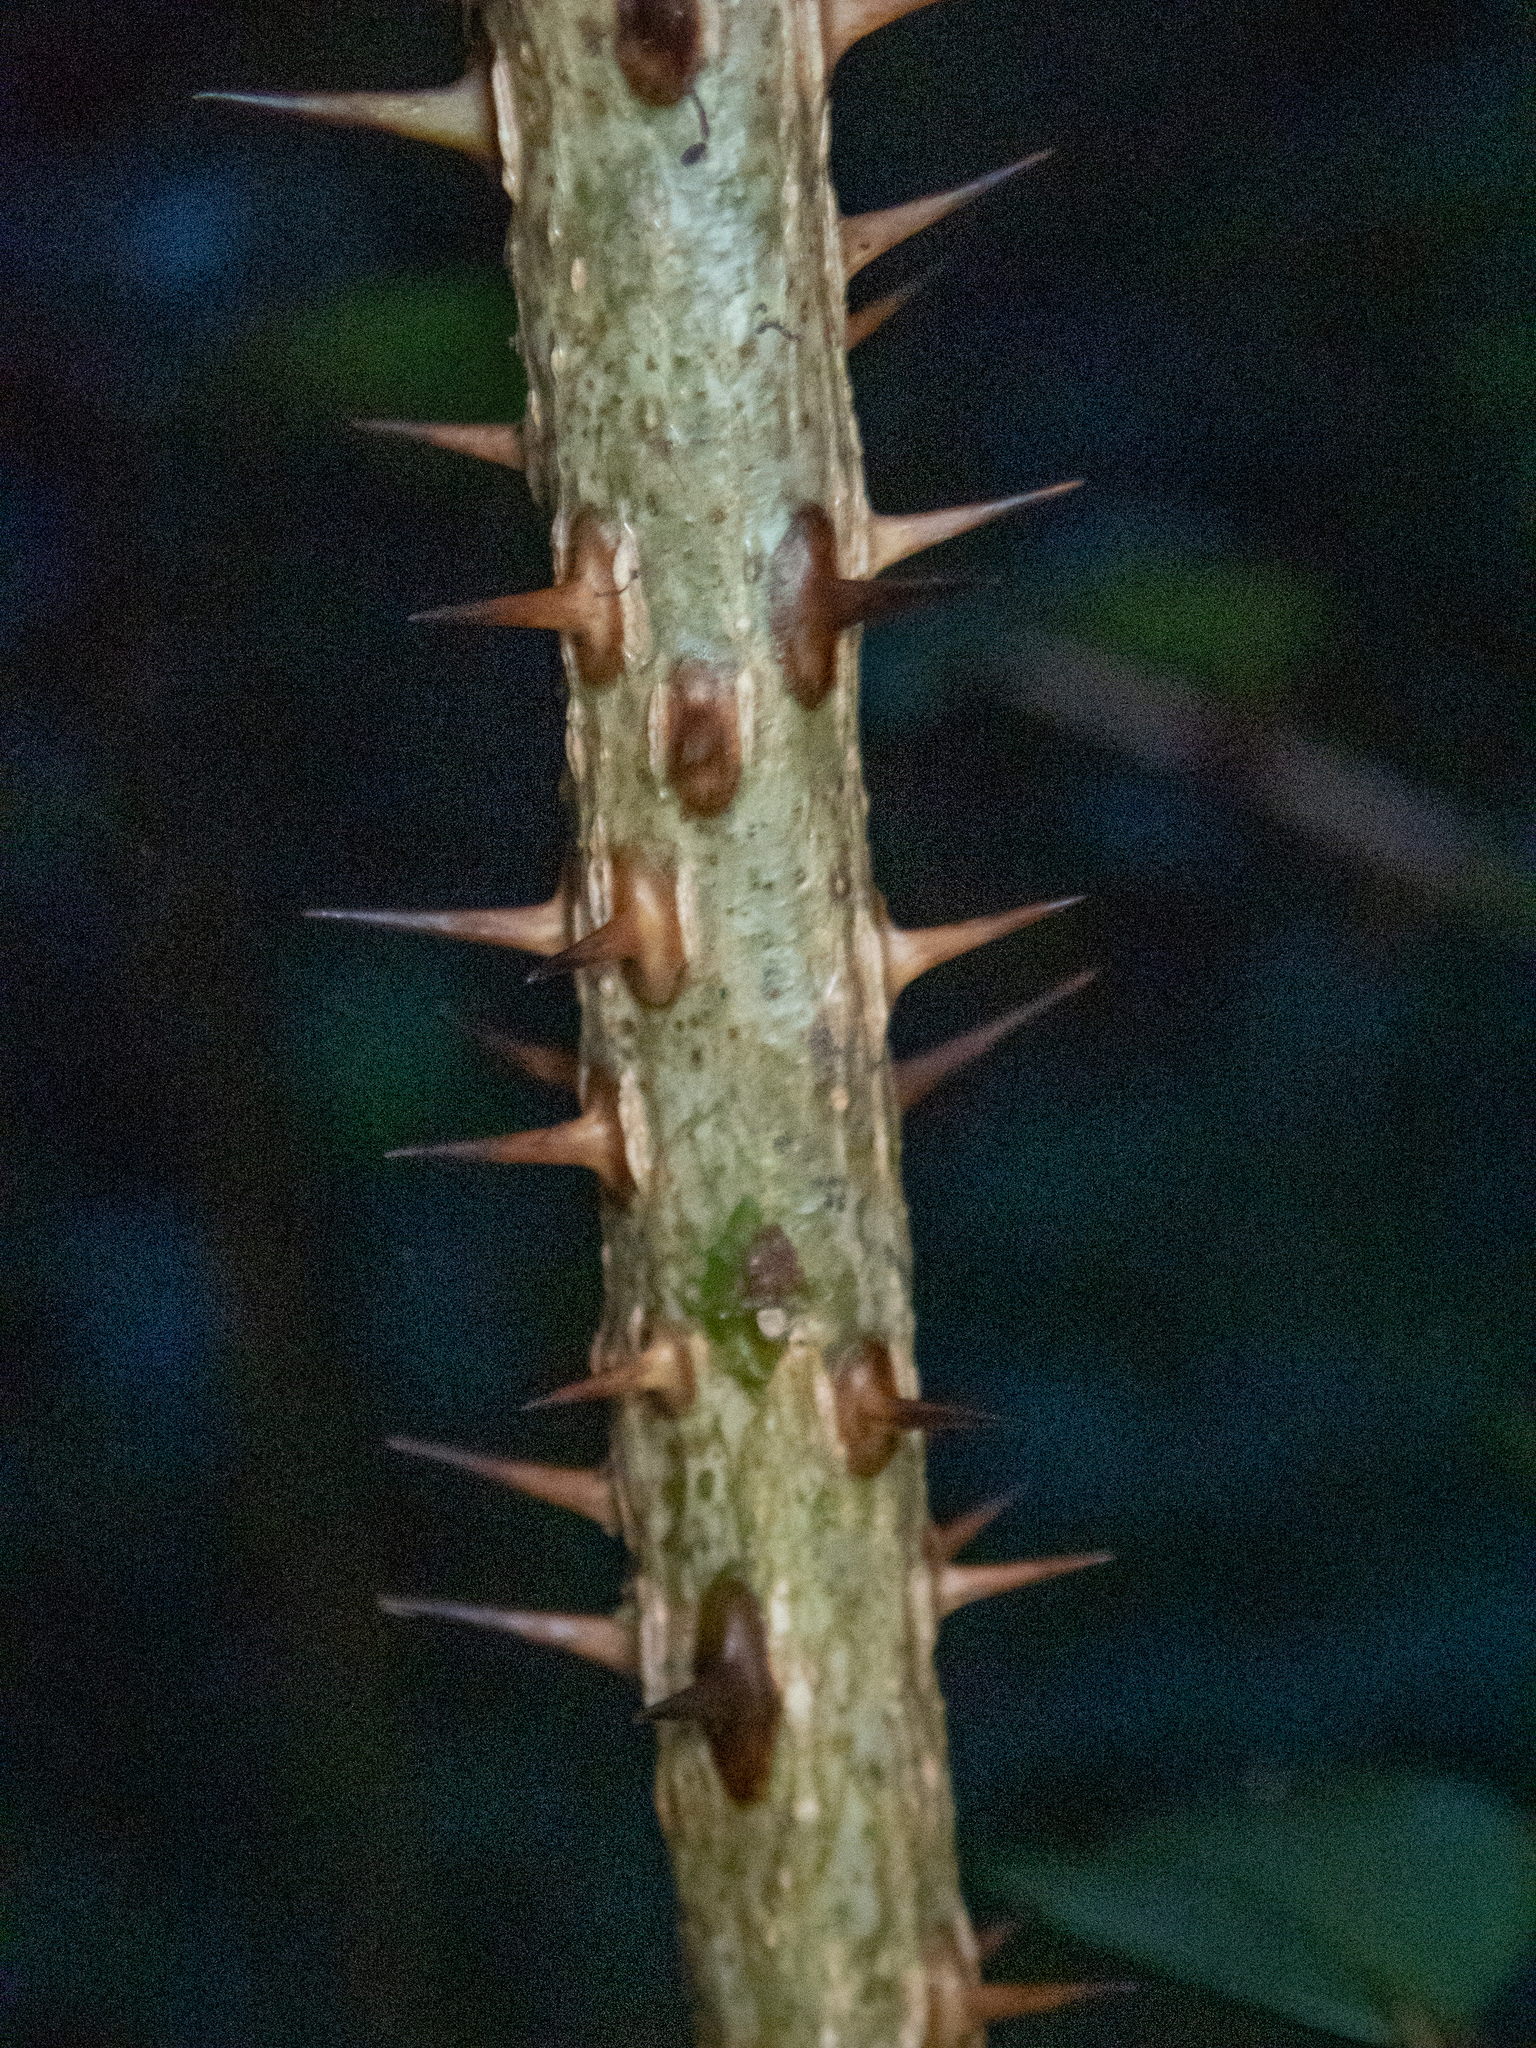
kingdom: Plantae
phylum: Tracheophyta
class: Magnoliopsida
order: Sapindales
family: Rutaceae
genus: Zanthoxylum
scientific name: Zanthoxylum punctatum
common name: Dotted pricklyash
